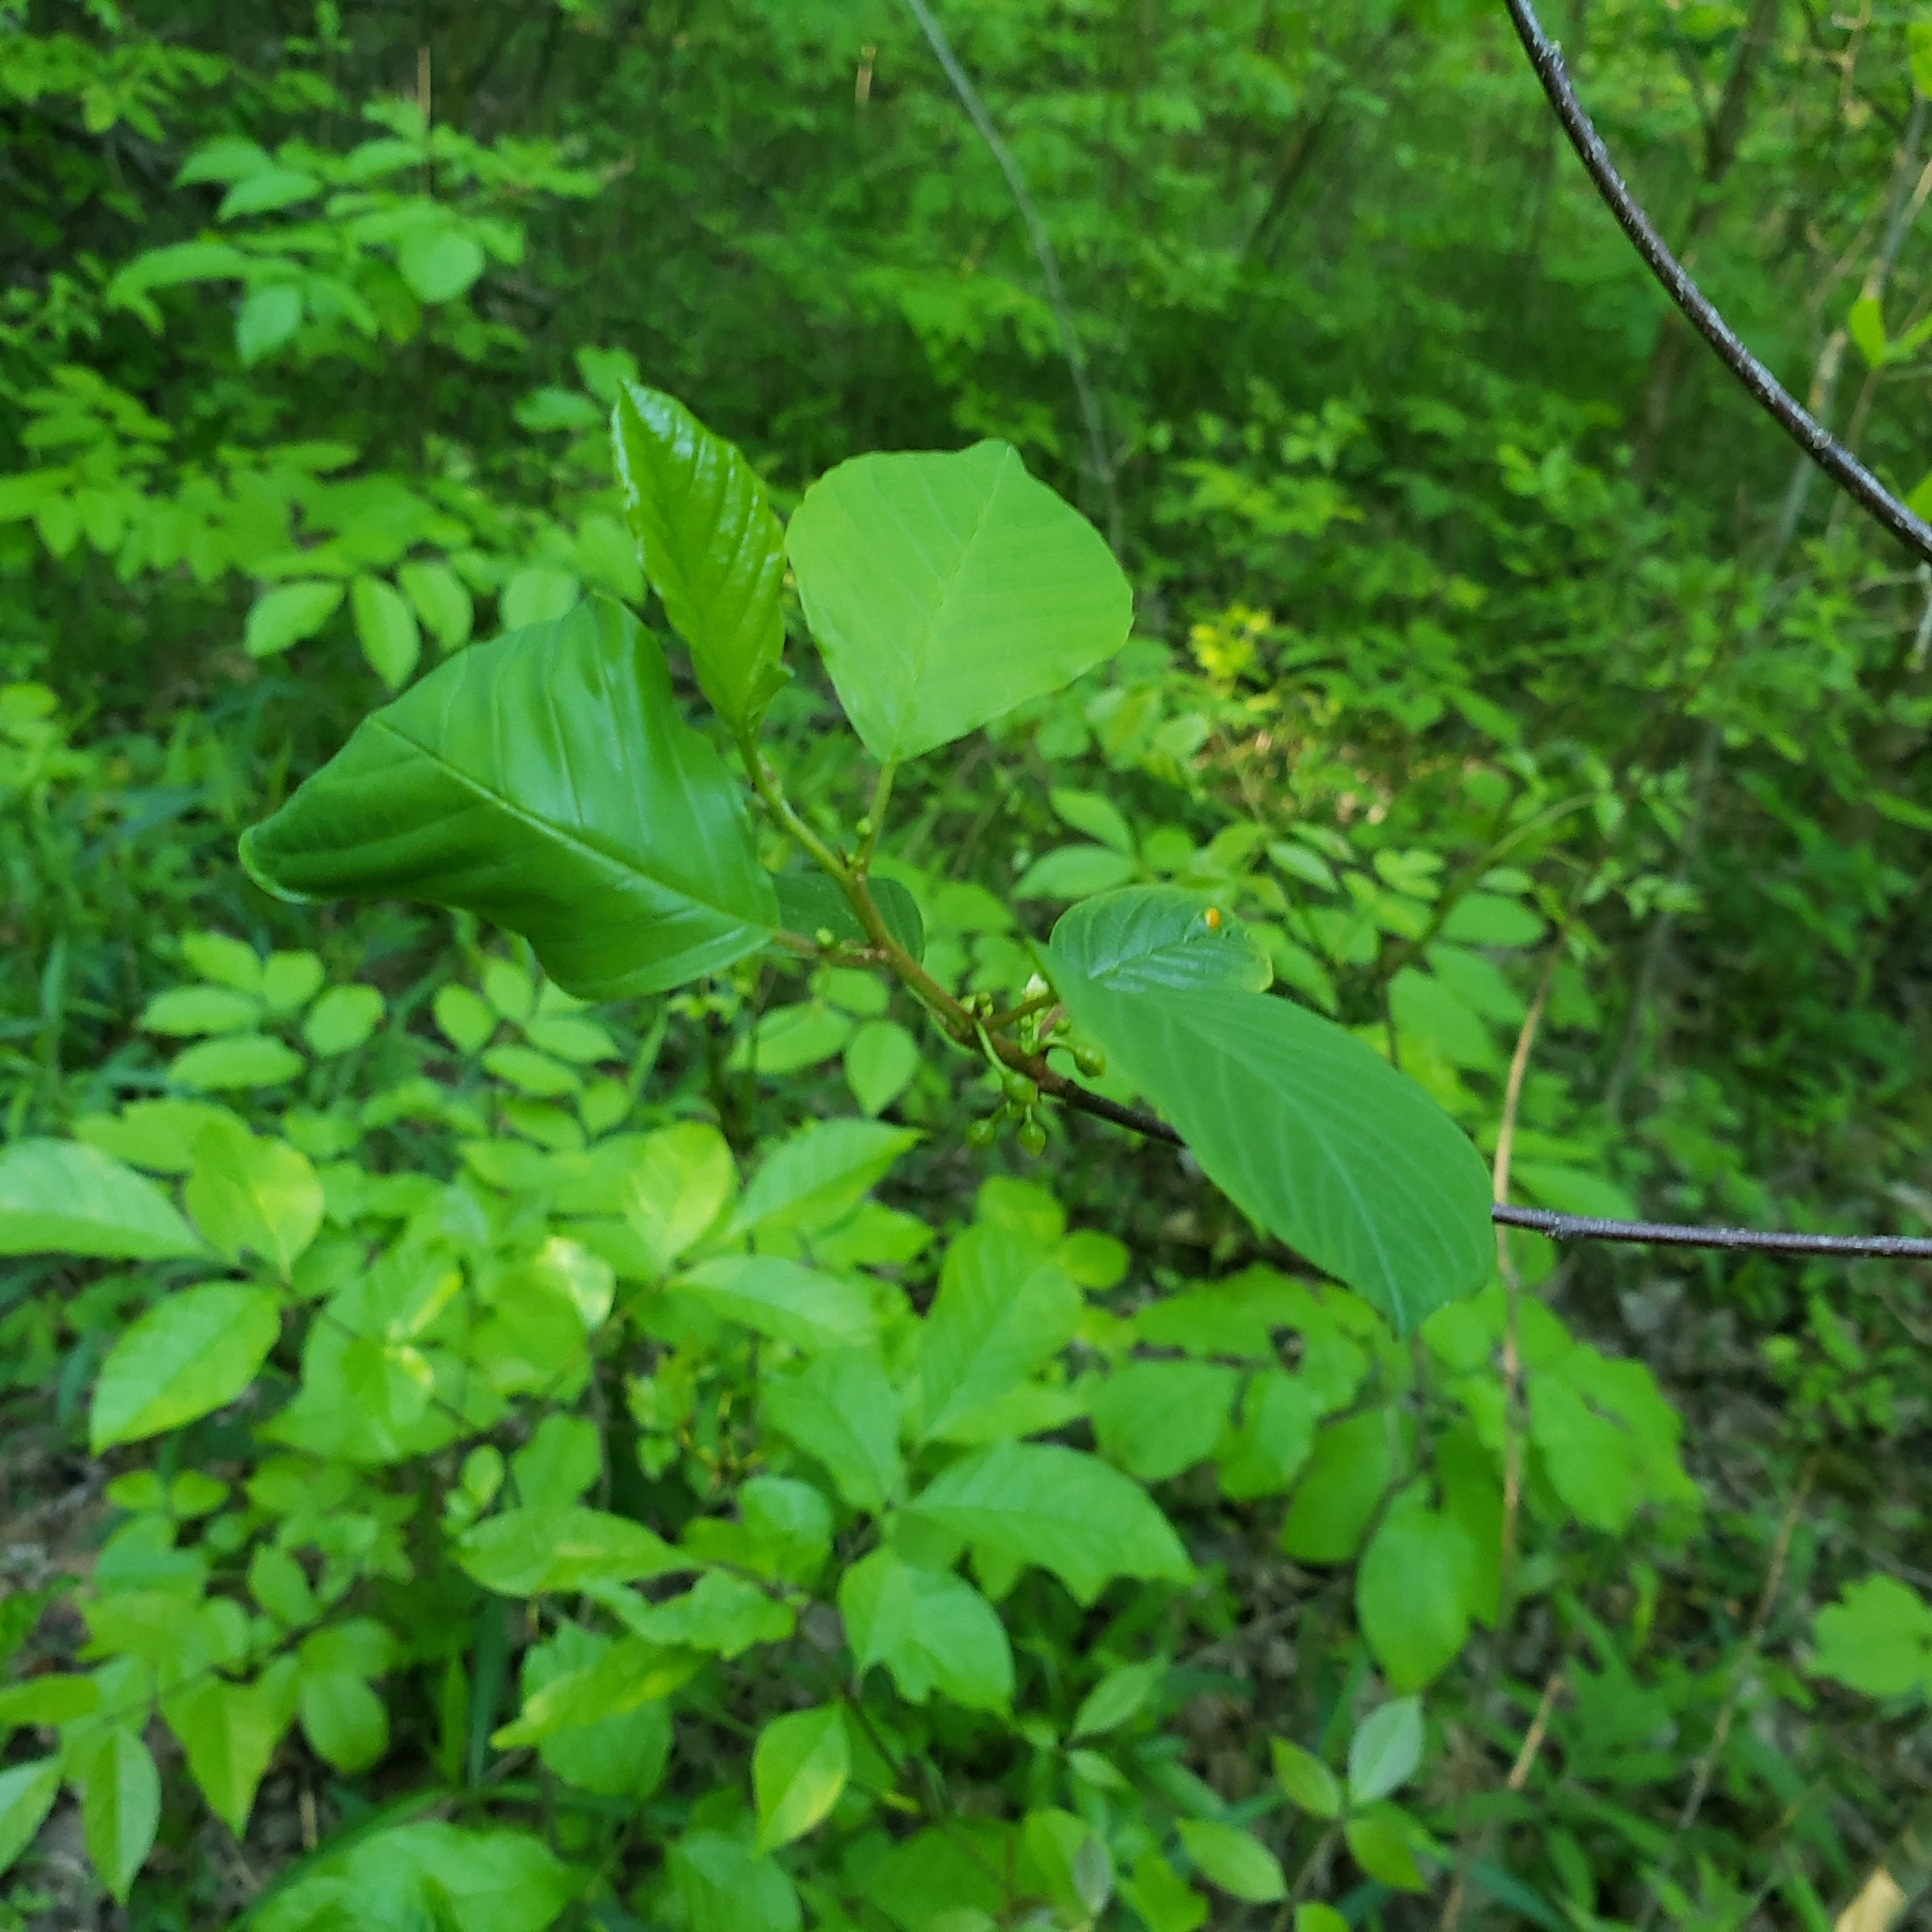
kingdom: Plantae
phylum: Tracheophyta
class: Magnoliopsida
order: Rosales
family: Rhamnaceae
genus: Frangula
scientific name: Frangula alnus
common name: Alder buckthorn
